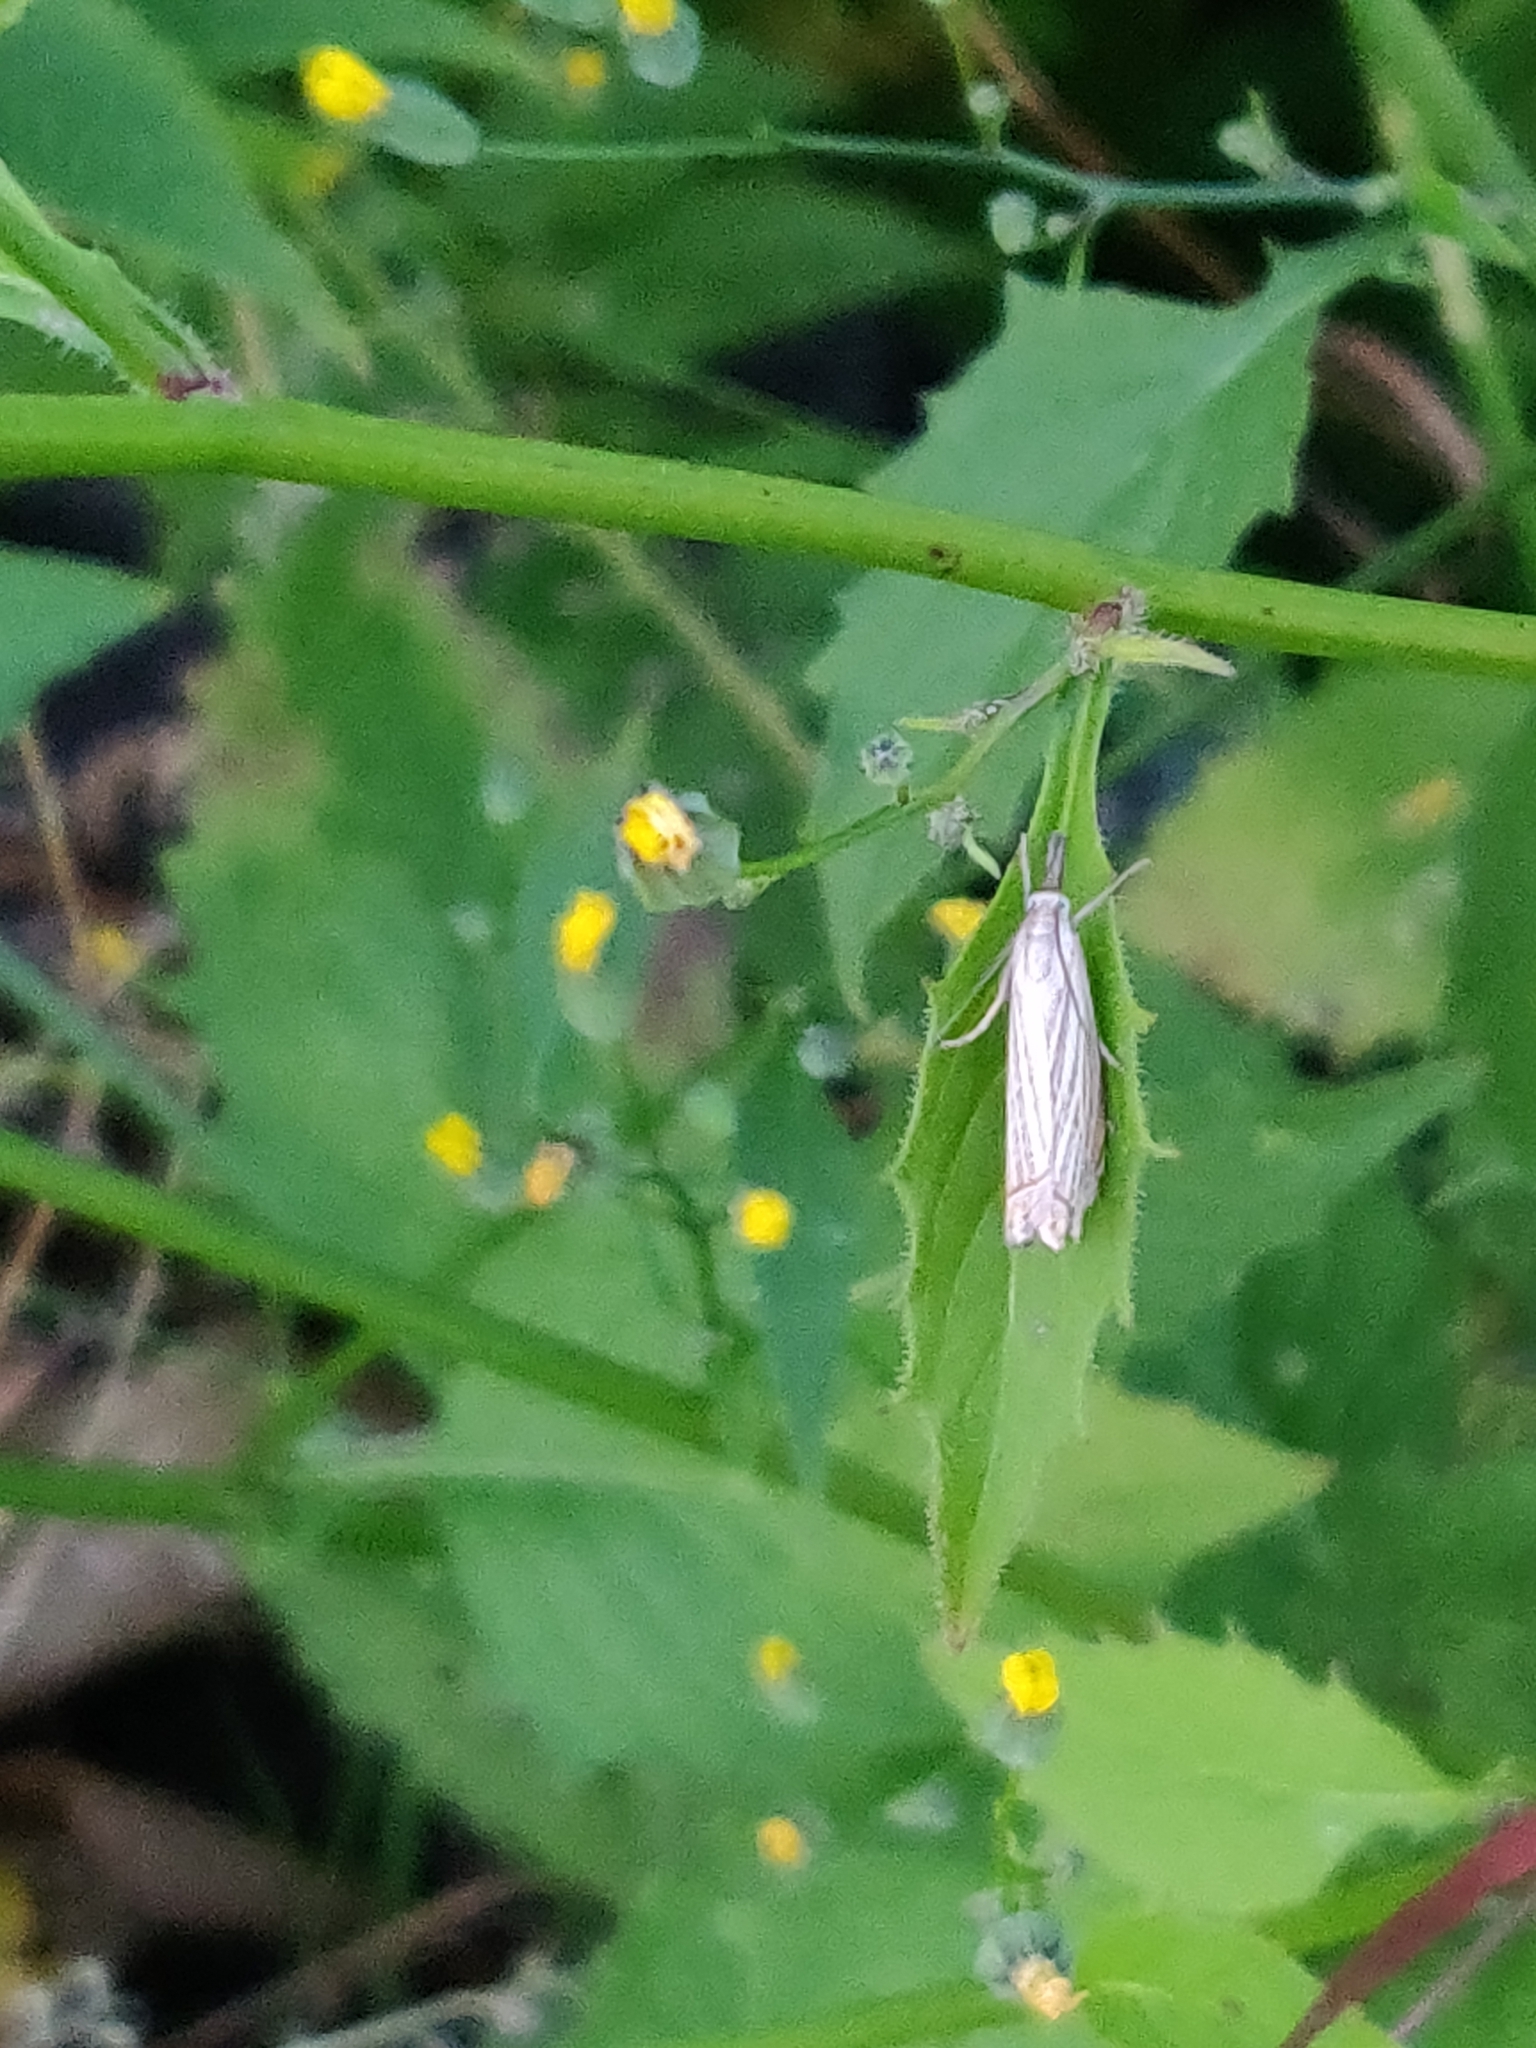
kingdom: Animalia
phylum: Arthropoda
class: Insecta
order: Lepidoptera
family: Crambidae
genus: Chrysoteuchia
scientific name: Chrysoteuchia culmella
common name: Garden grass-veneer
